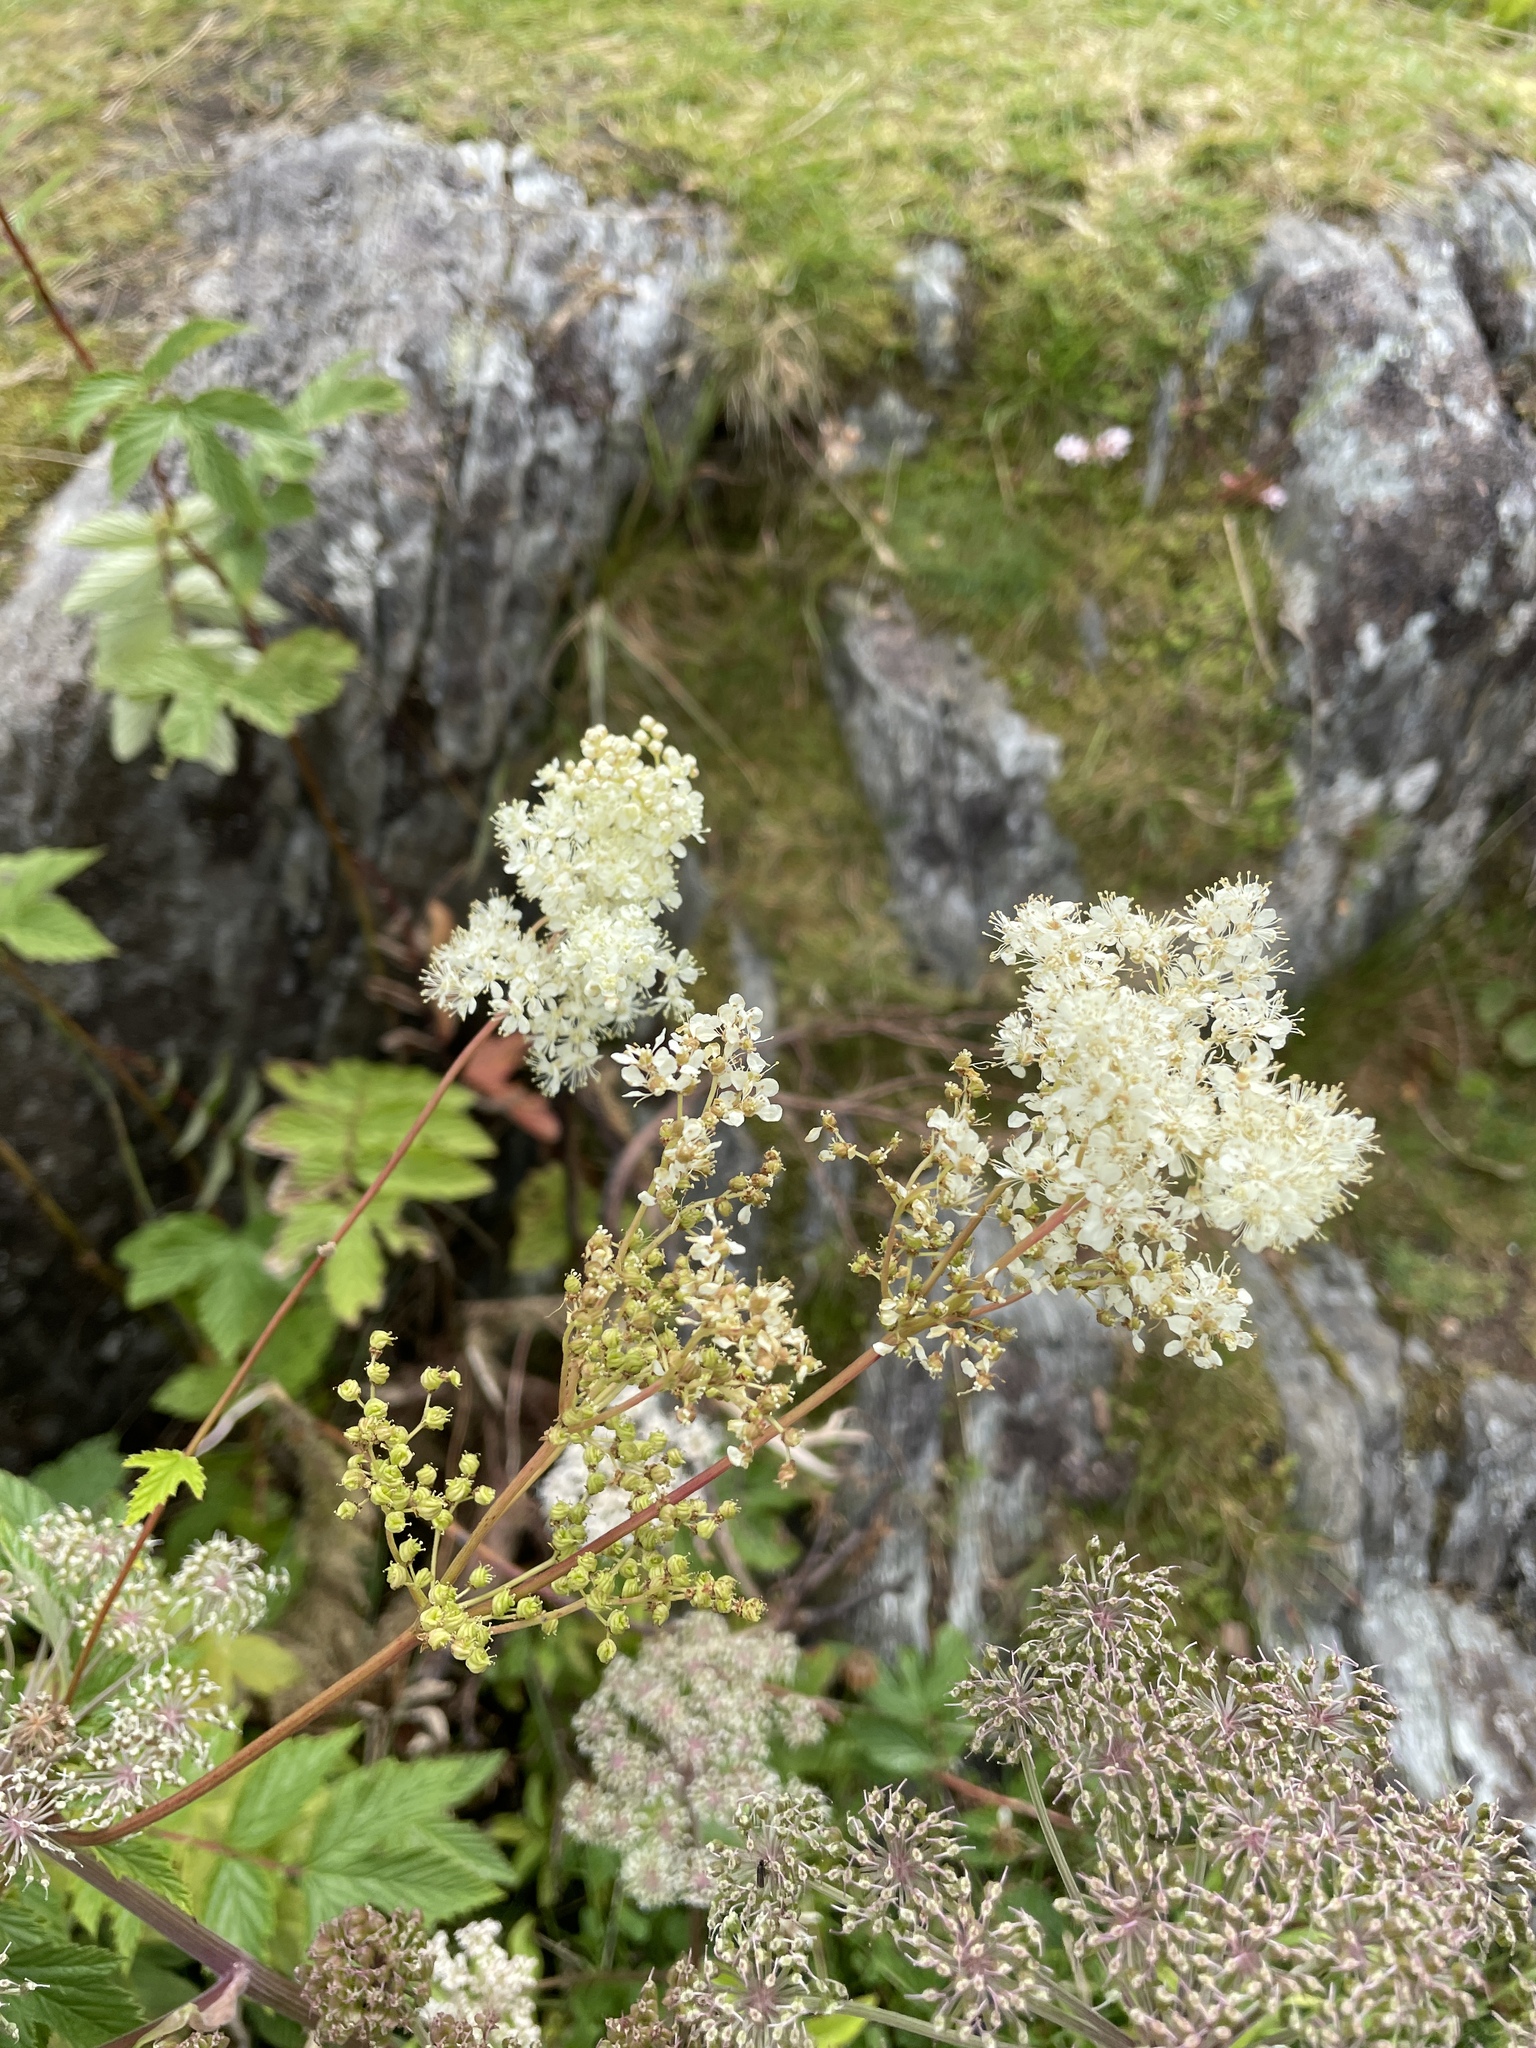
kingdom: Plantae
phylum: Tracheophyta
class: Magnoliopsida
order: Rosales
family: Rosaceae
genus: Filipendula
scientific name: Filipendula ulmaria
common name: Meadowsweet
